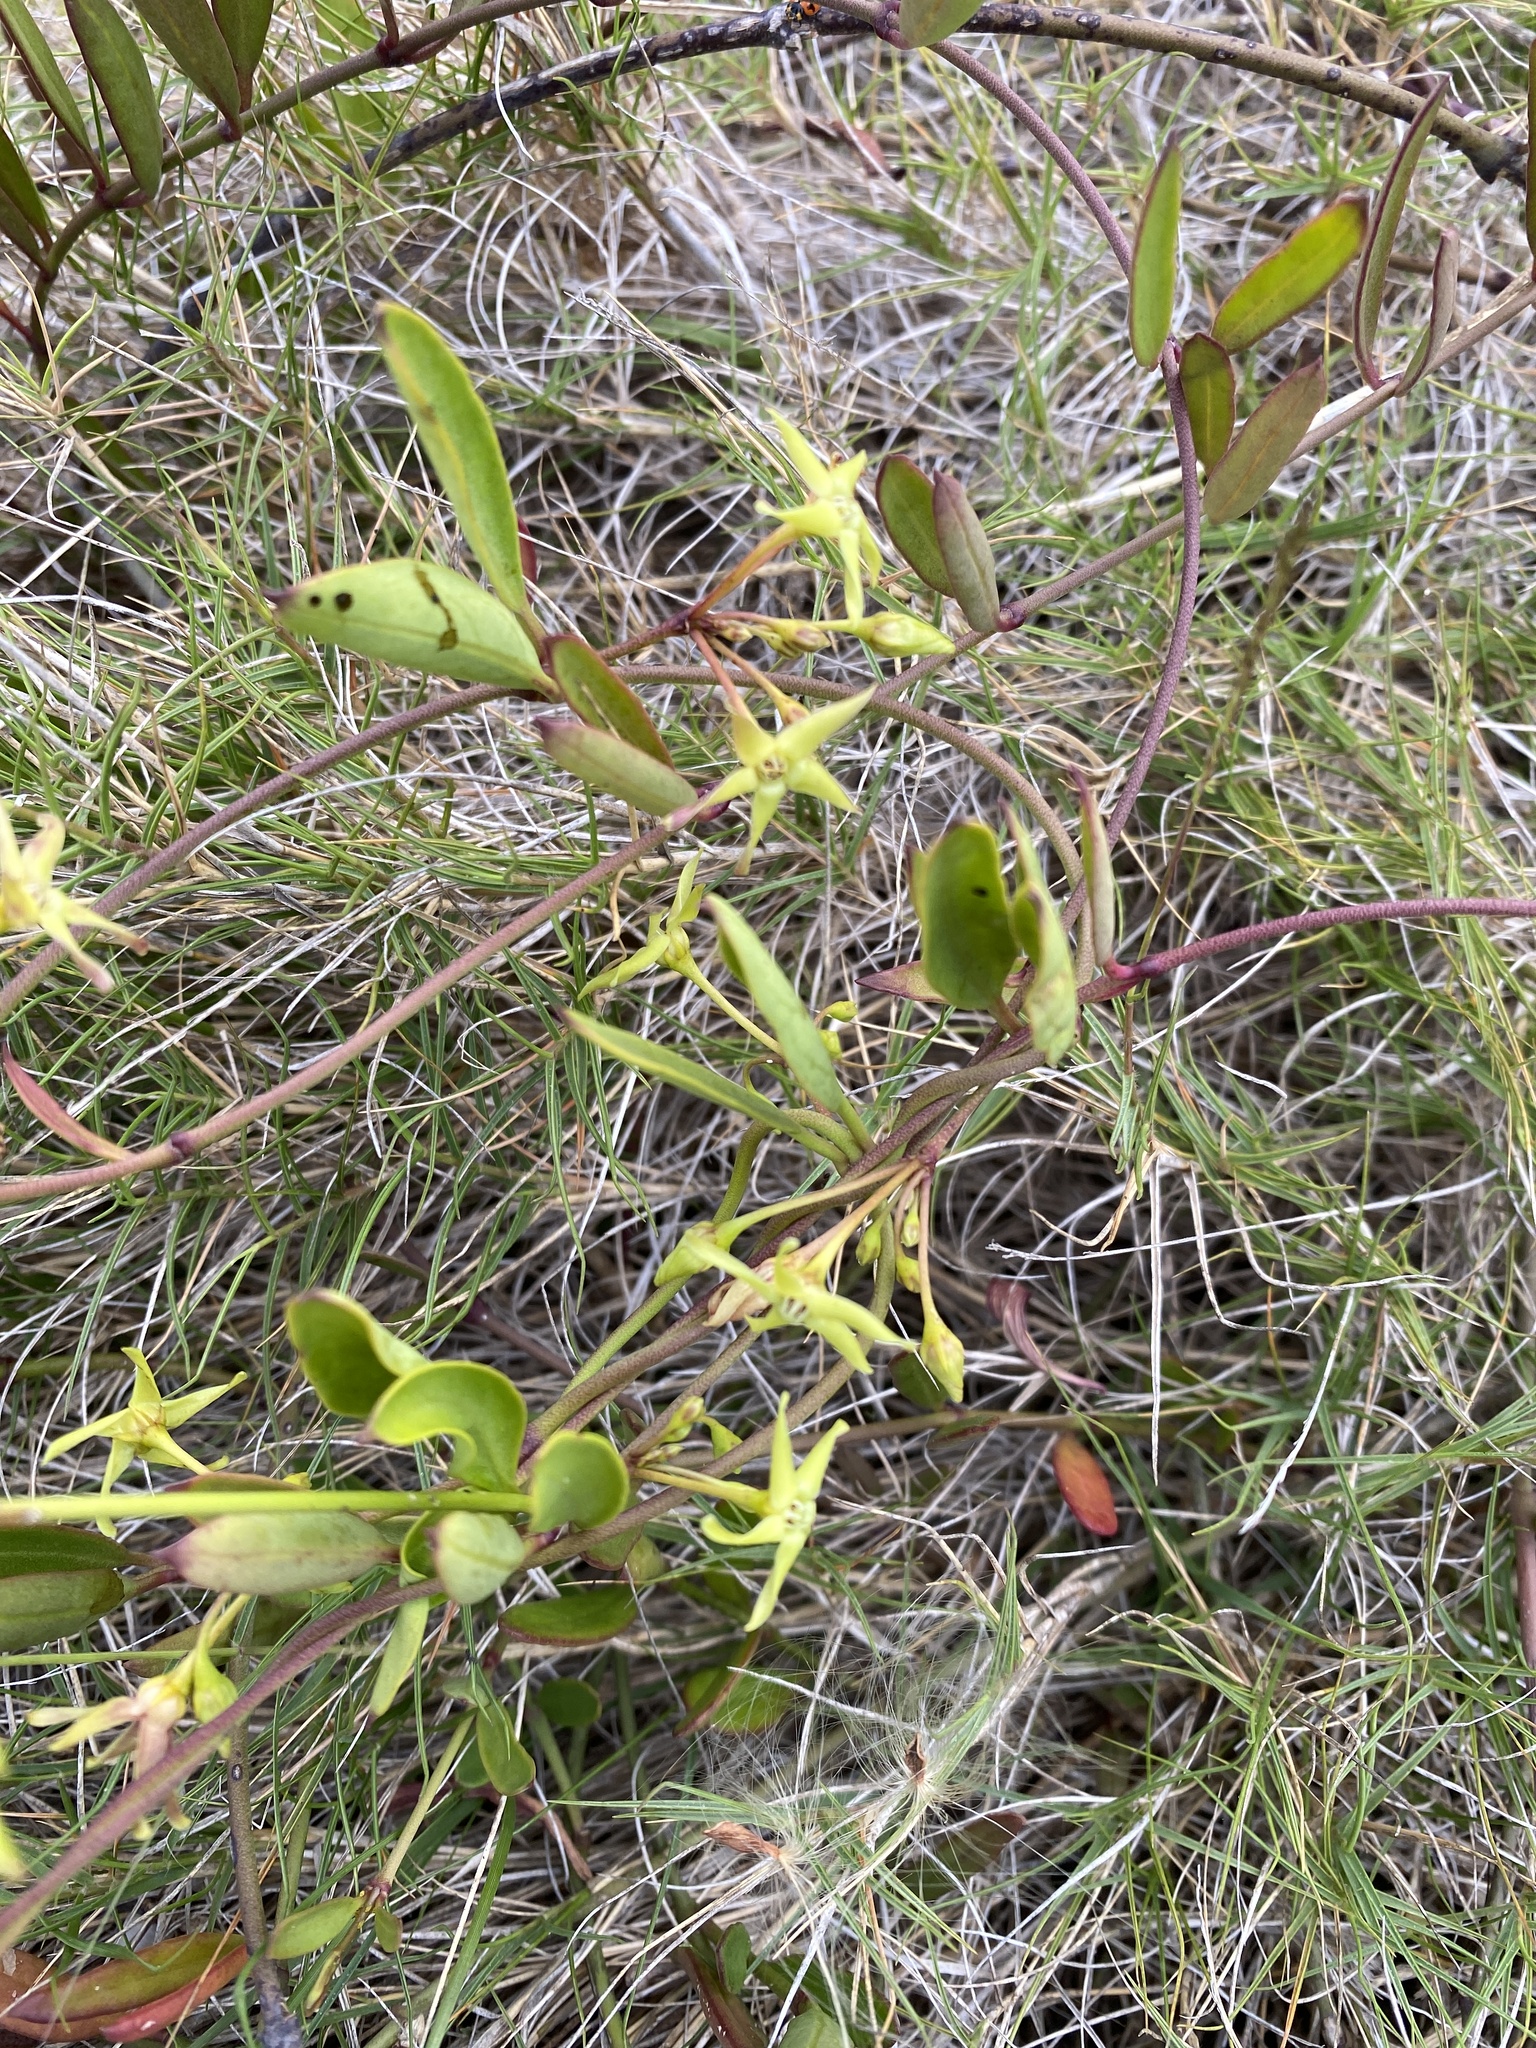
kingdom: Plantae
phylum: Tracheophyta
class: Magnoliopsida
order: Gentianales
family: Apocynaceae
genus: Vincetoxicum
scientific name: Vincetoxicum carnosum
